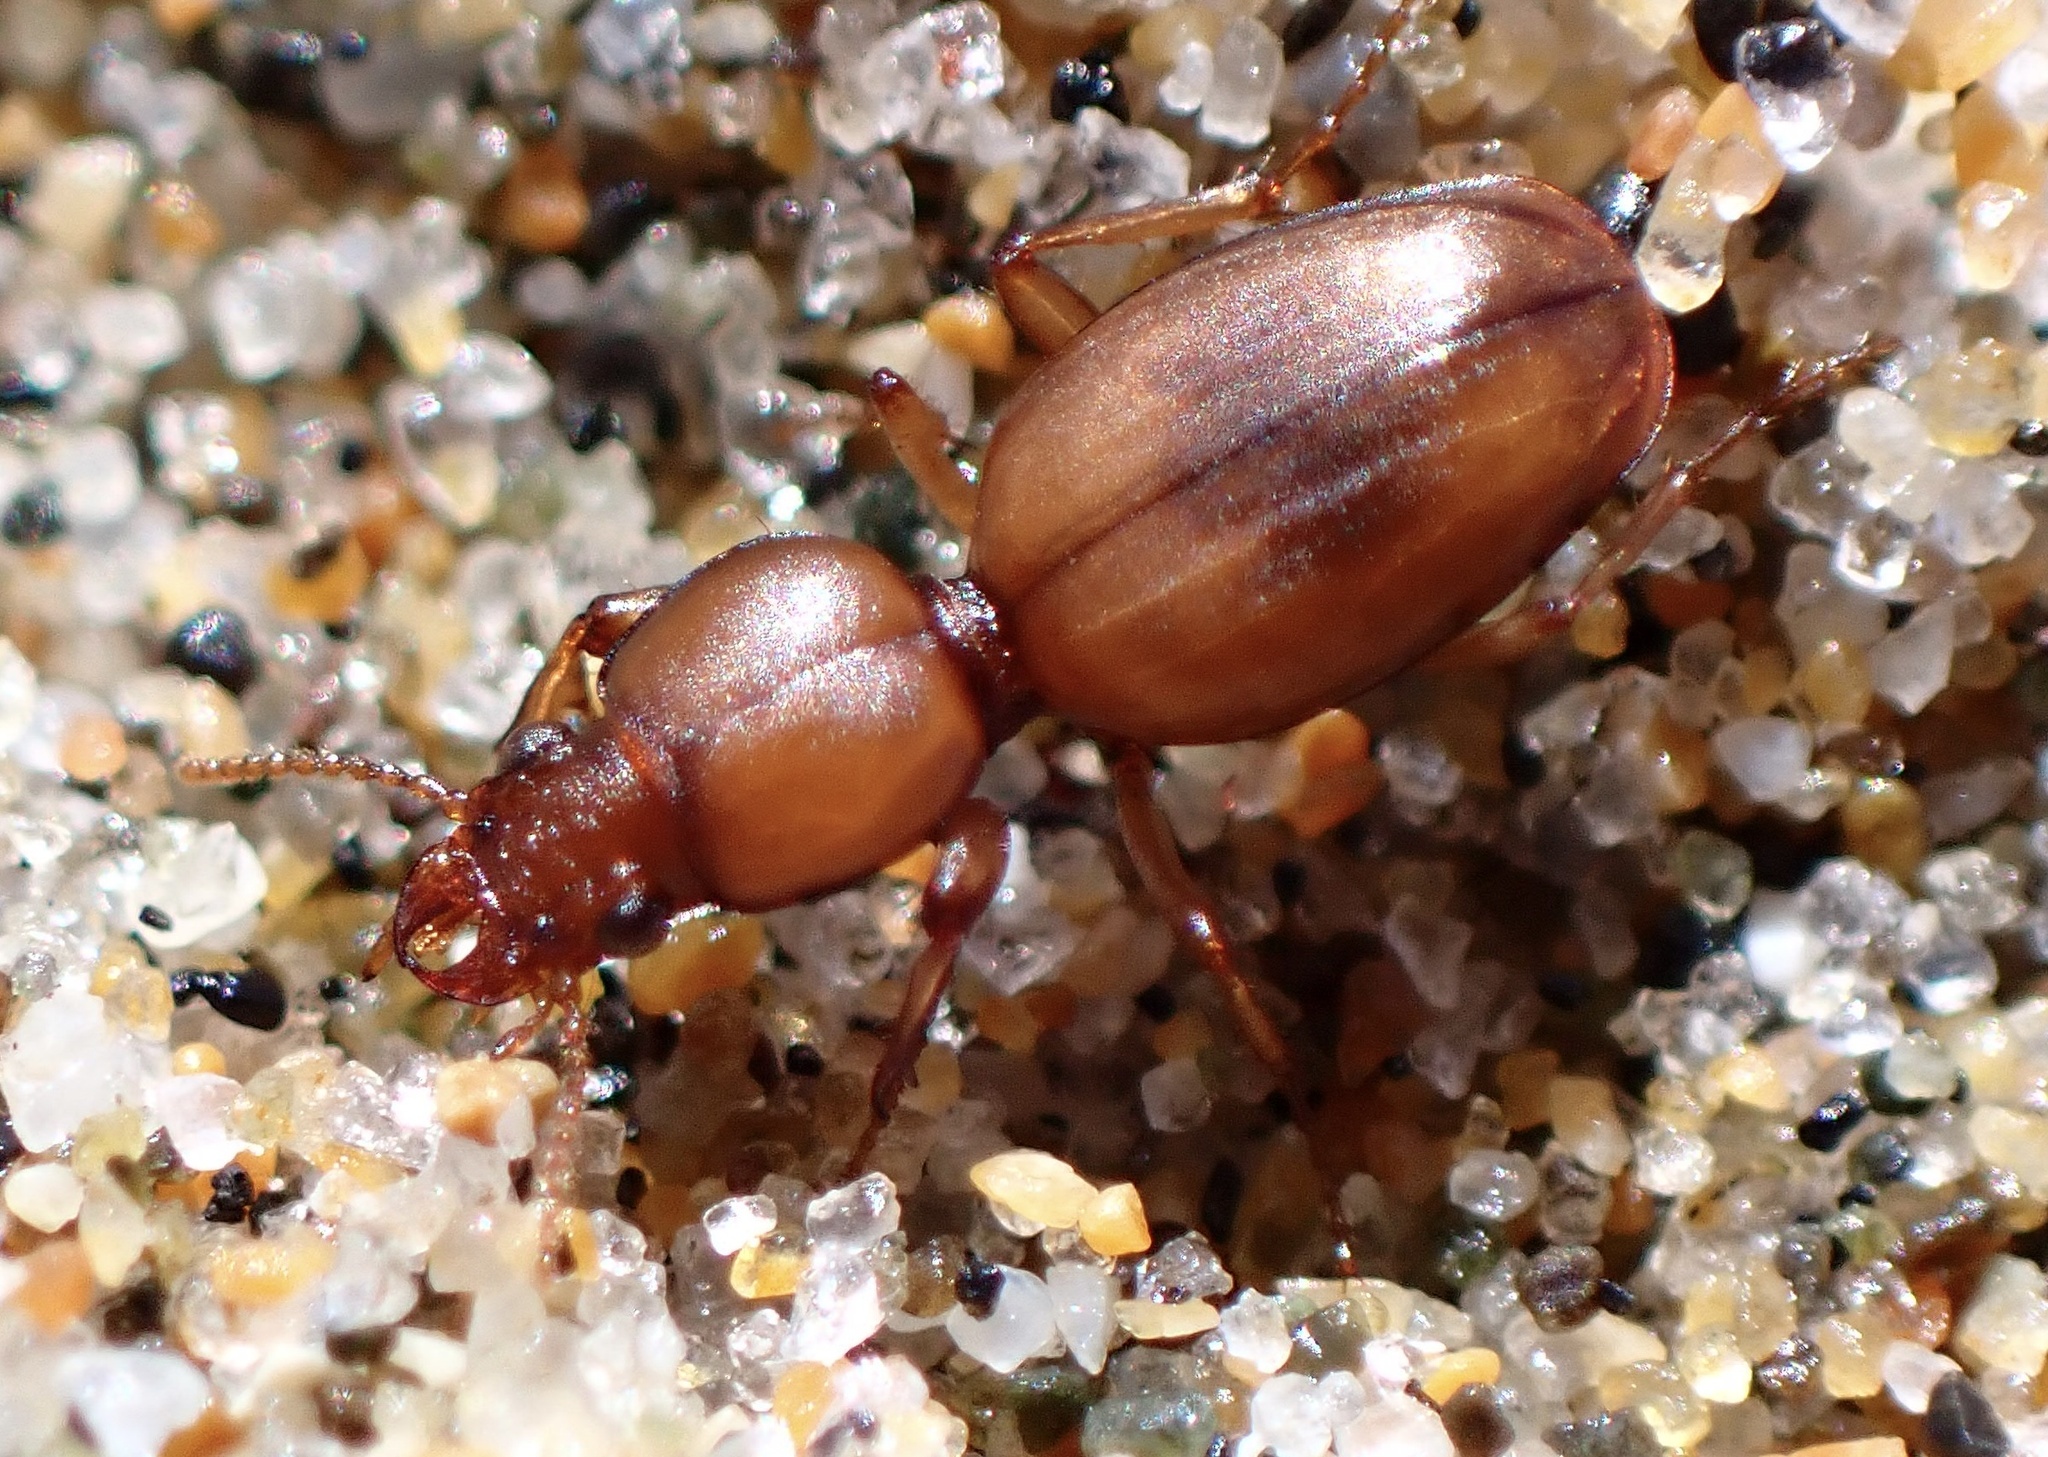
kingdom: Animalia
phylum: Arthropoda
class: Insecta
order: Coleoptera
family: Carabidae
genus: Akephorus
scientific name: Akephorus marinus
